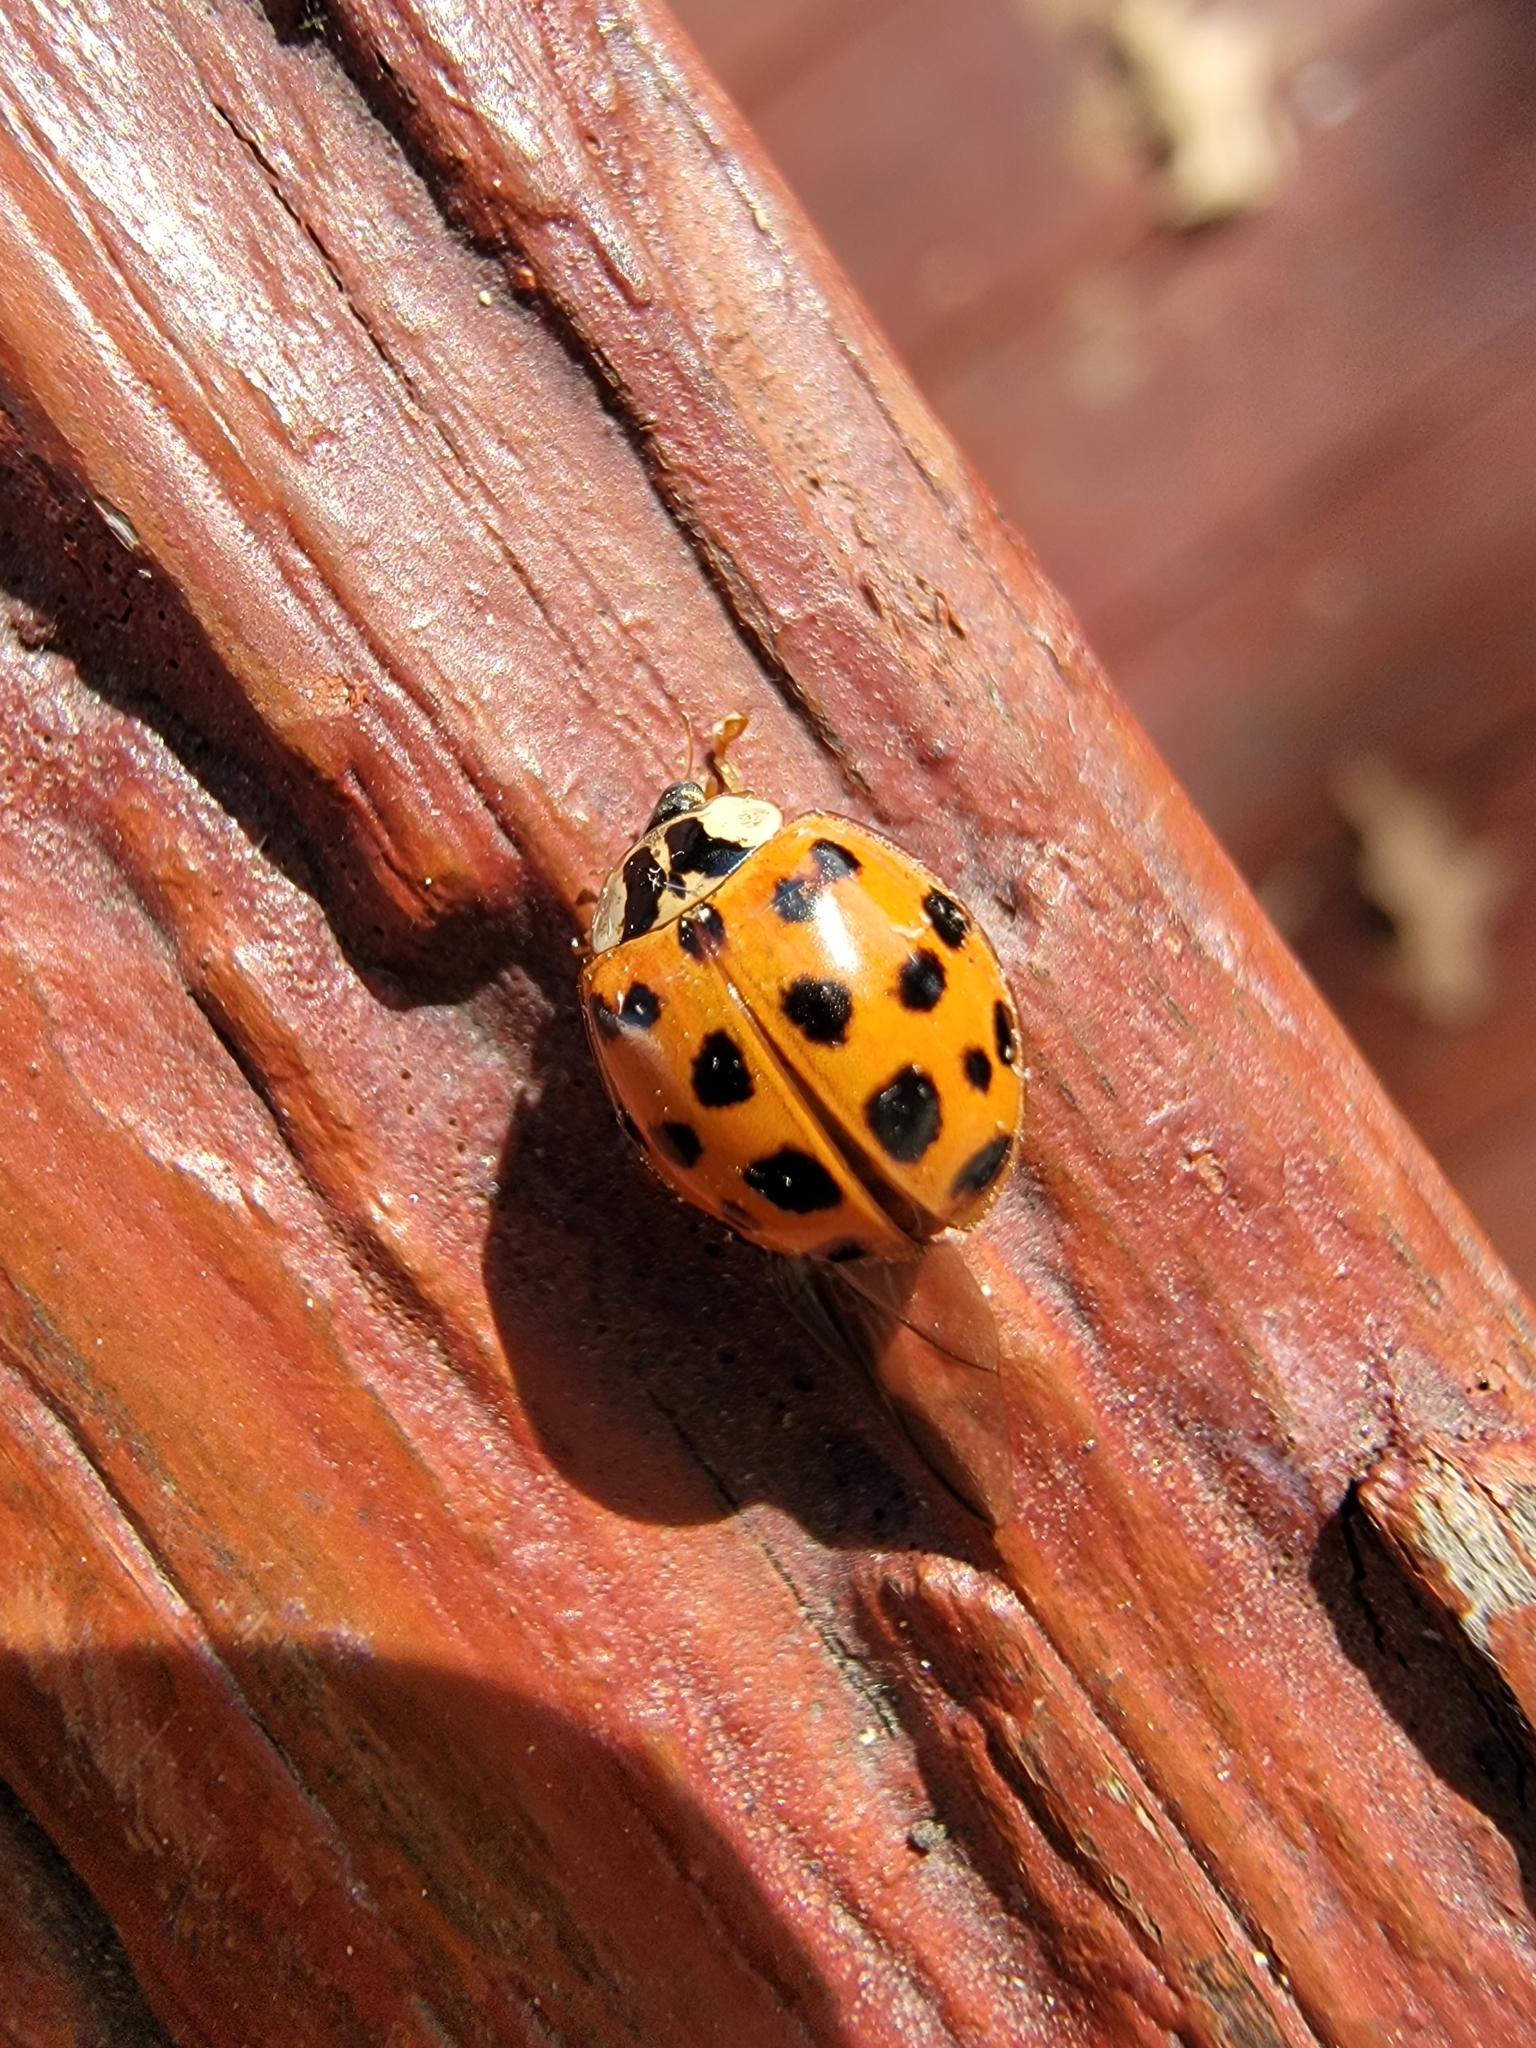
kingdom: Animalia
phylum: Arthropoda
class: Insecta
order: Coleoptera
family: Coccinellidae
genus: Harmonia
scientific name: Harmonia axyridis
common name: Harlequin ladybird
